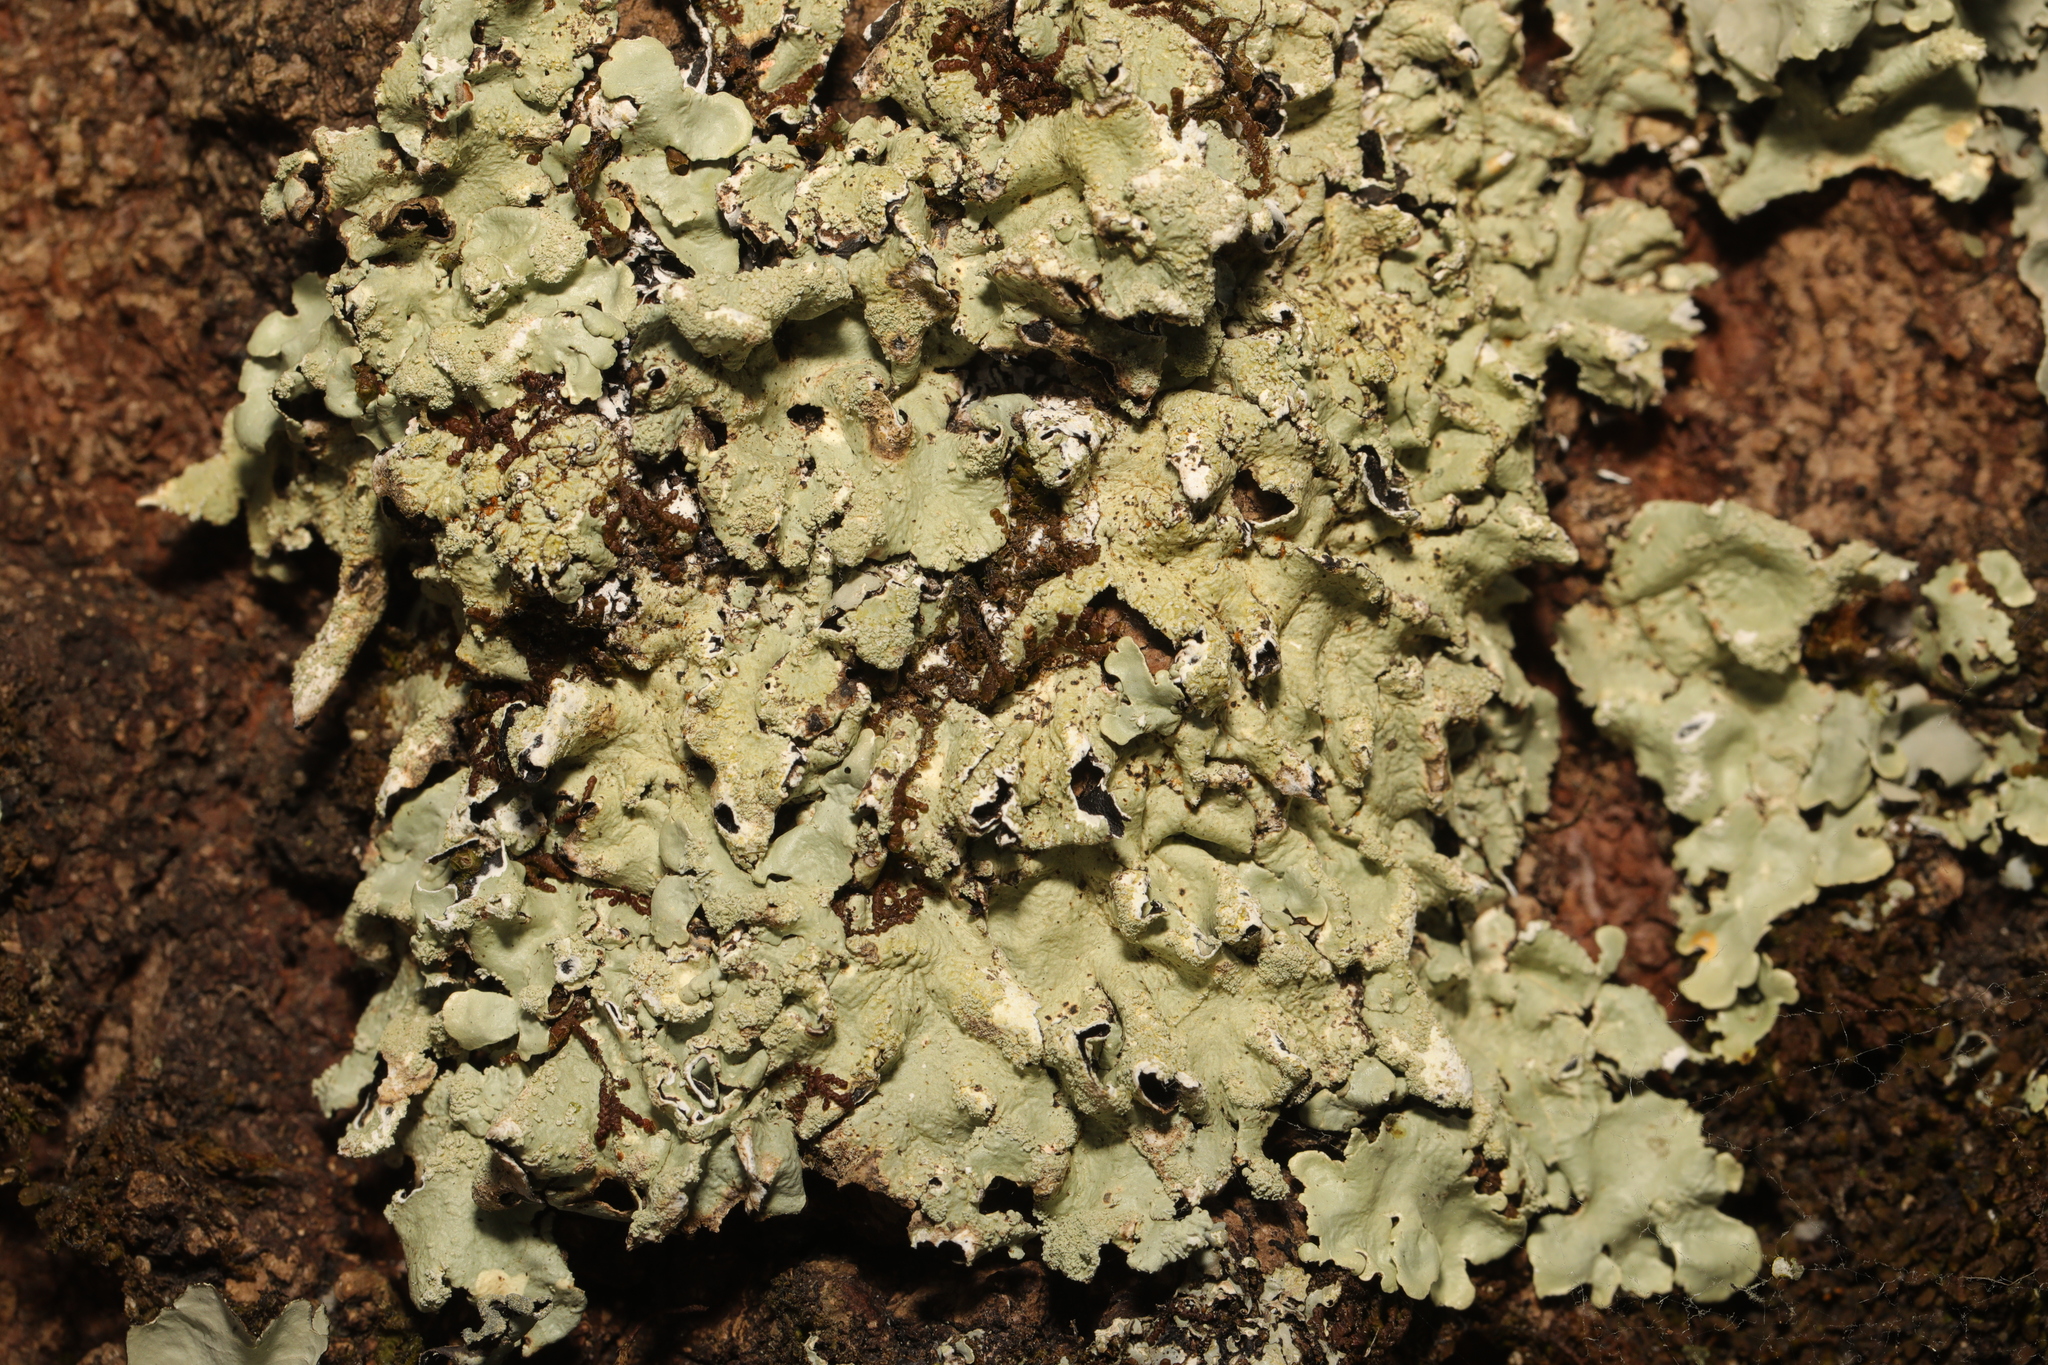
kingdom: Fungi
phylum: Ascomycota
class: Lecanoromycetes
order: Lecanorales
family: Parmeliaceae
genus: Flavoparmelia
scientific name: Flavoparmelia caperata
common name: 40-mile per hour lichen
